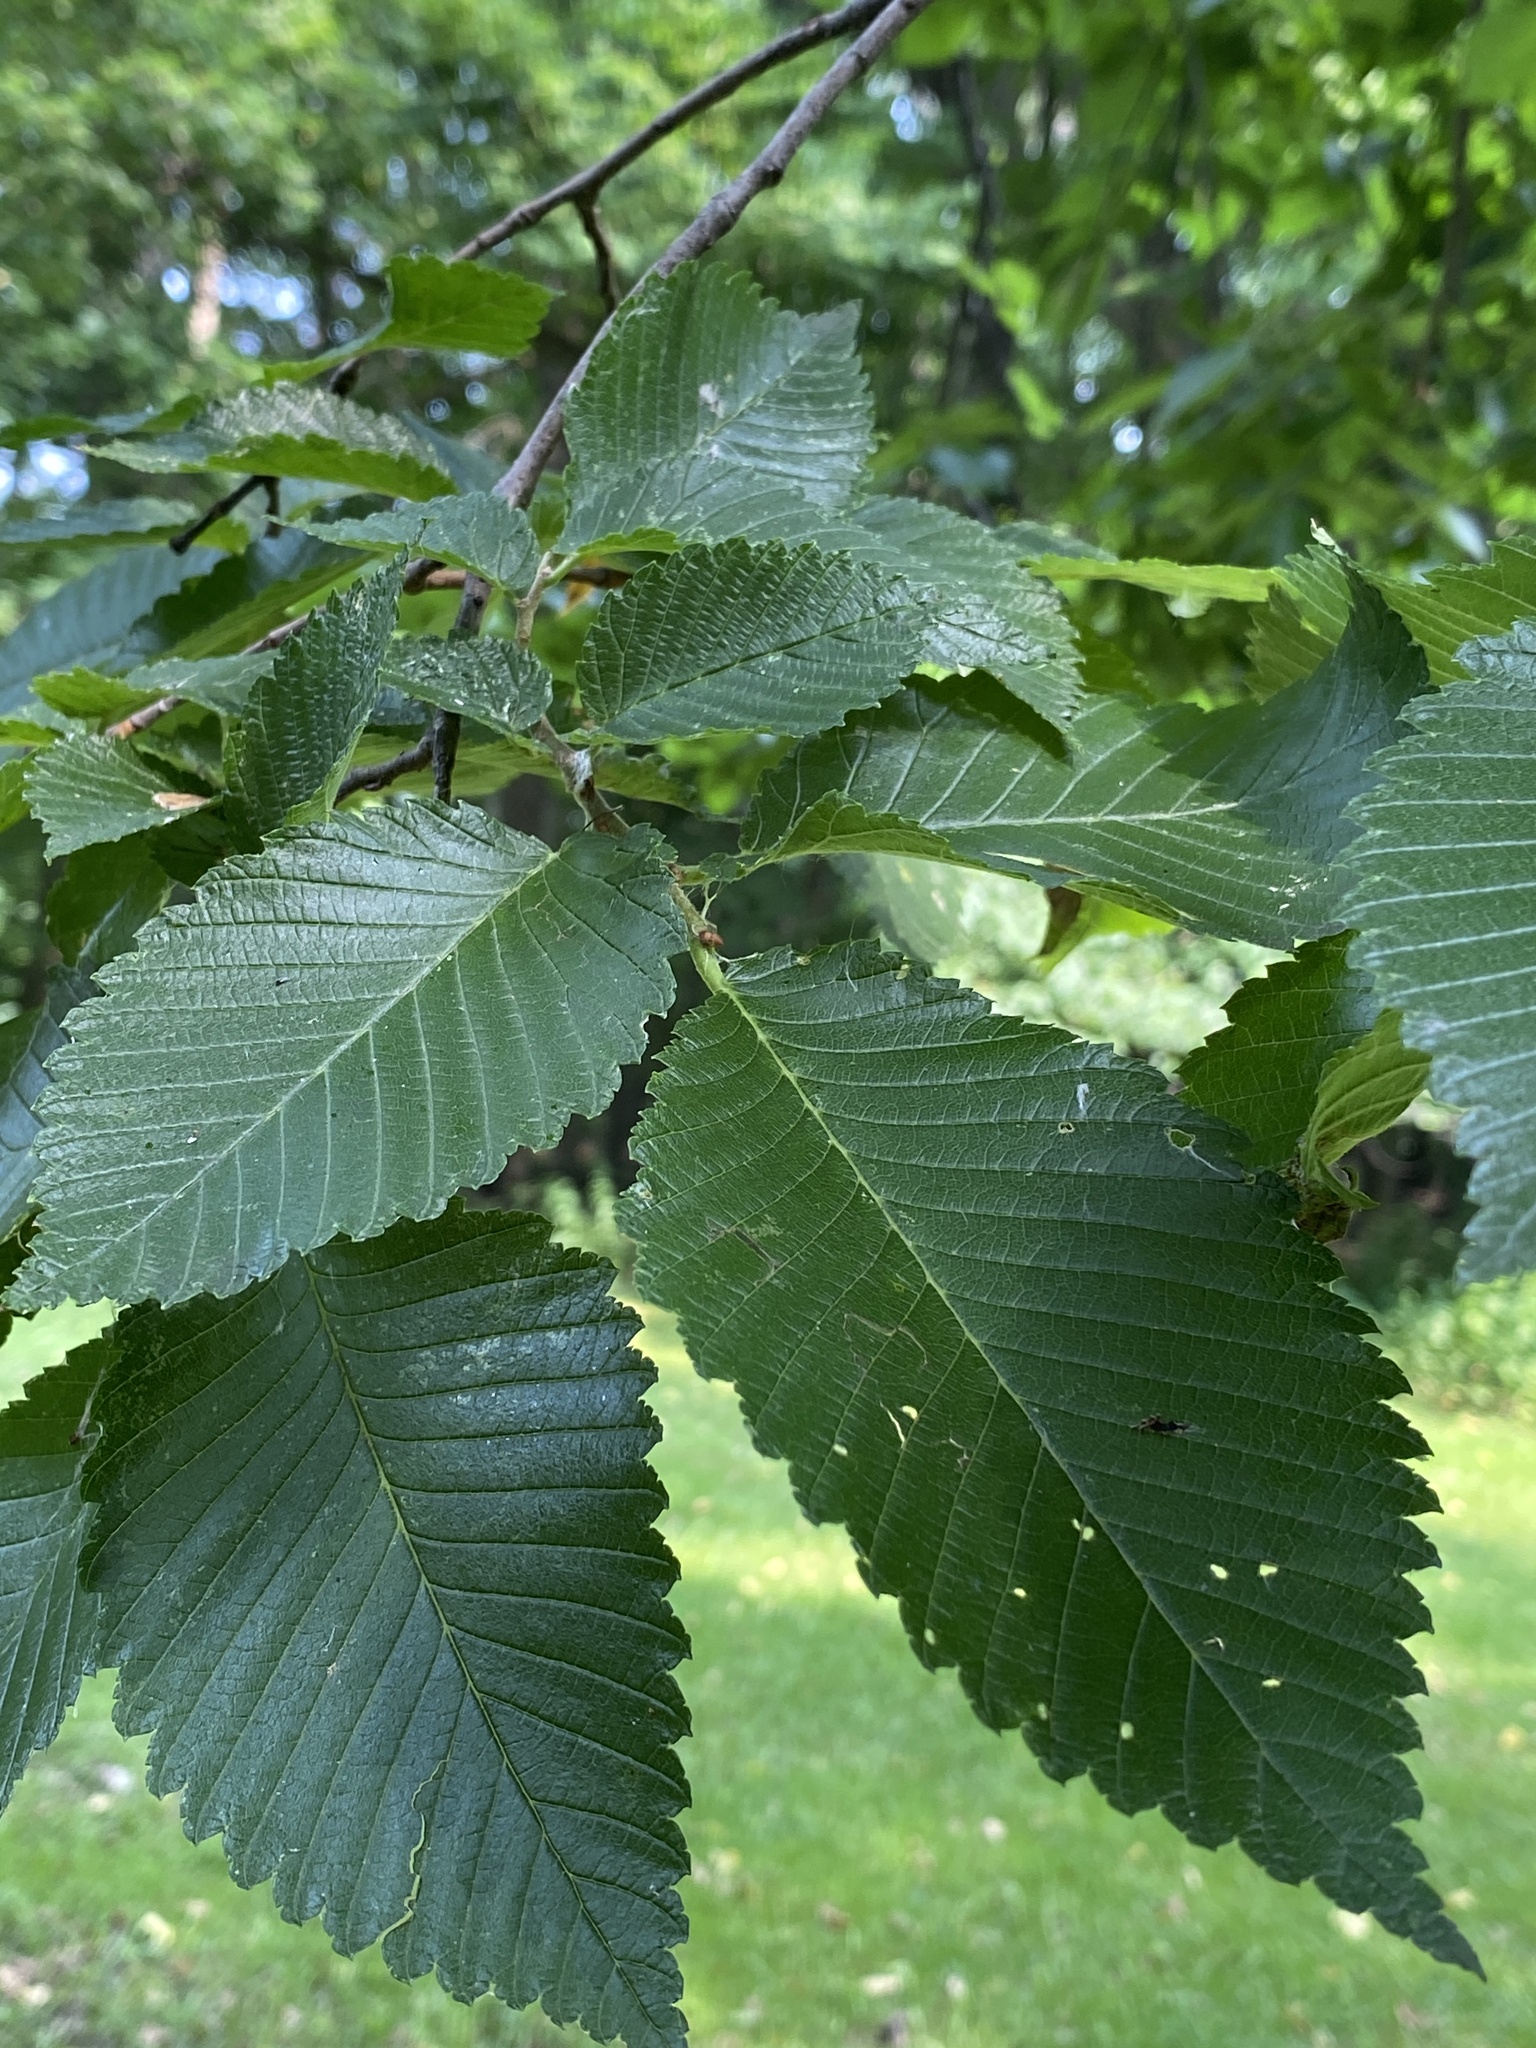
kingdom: Plantae
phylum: Tracheophyta
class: Magnoliopsida
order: Rosales
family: Ulmaceae
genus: Ulmus
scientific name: Ulmus americana
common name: American elm
